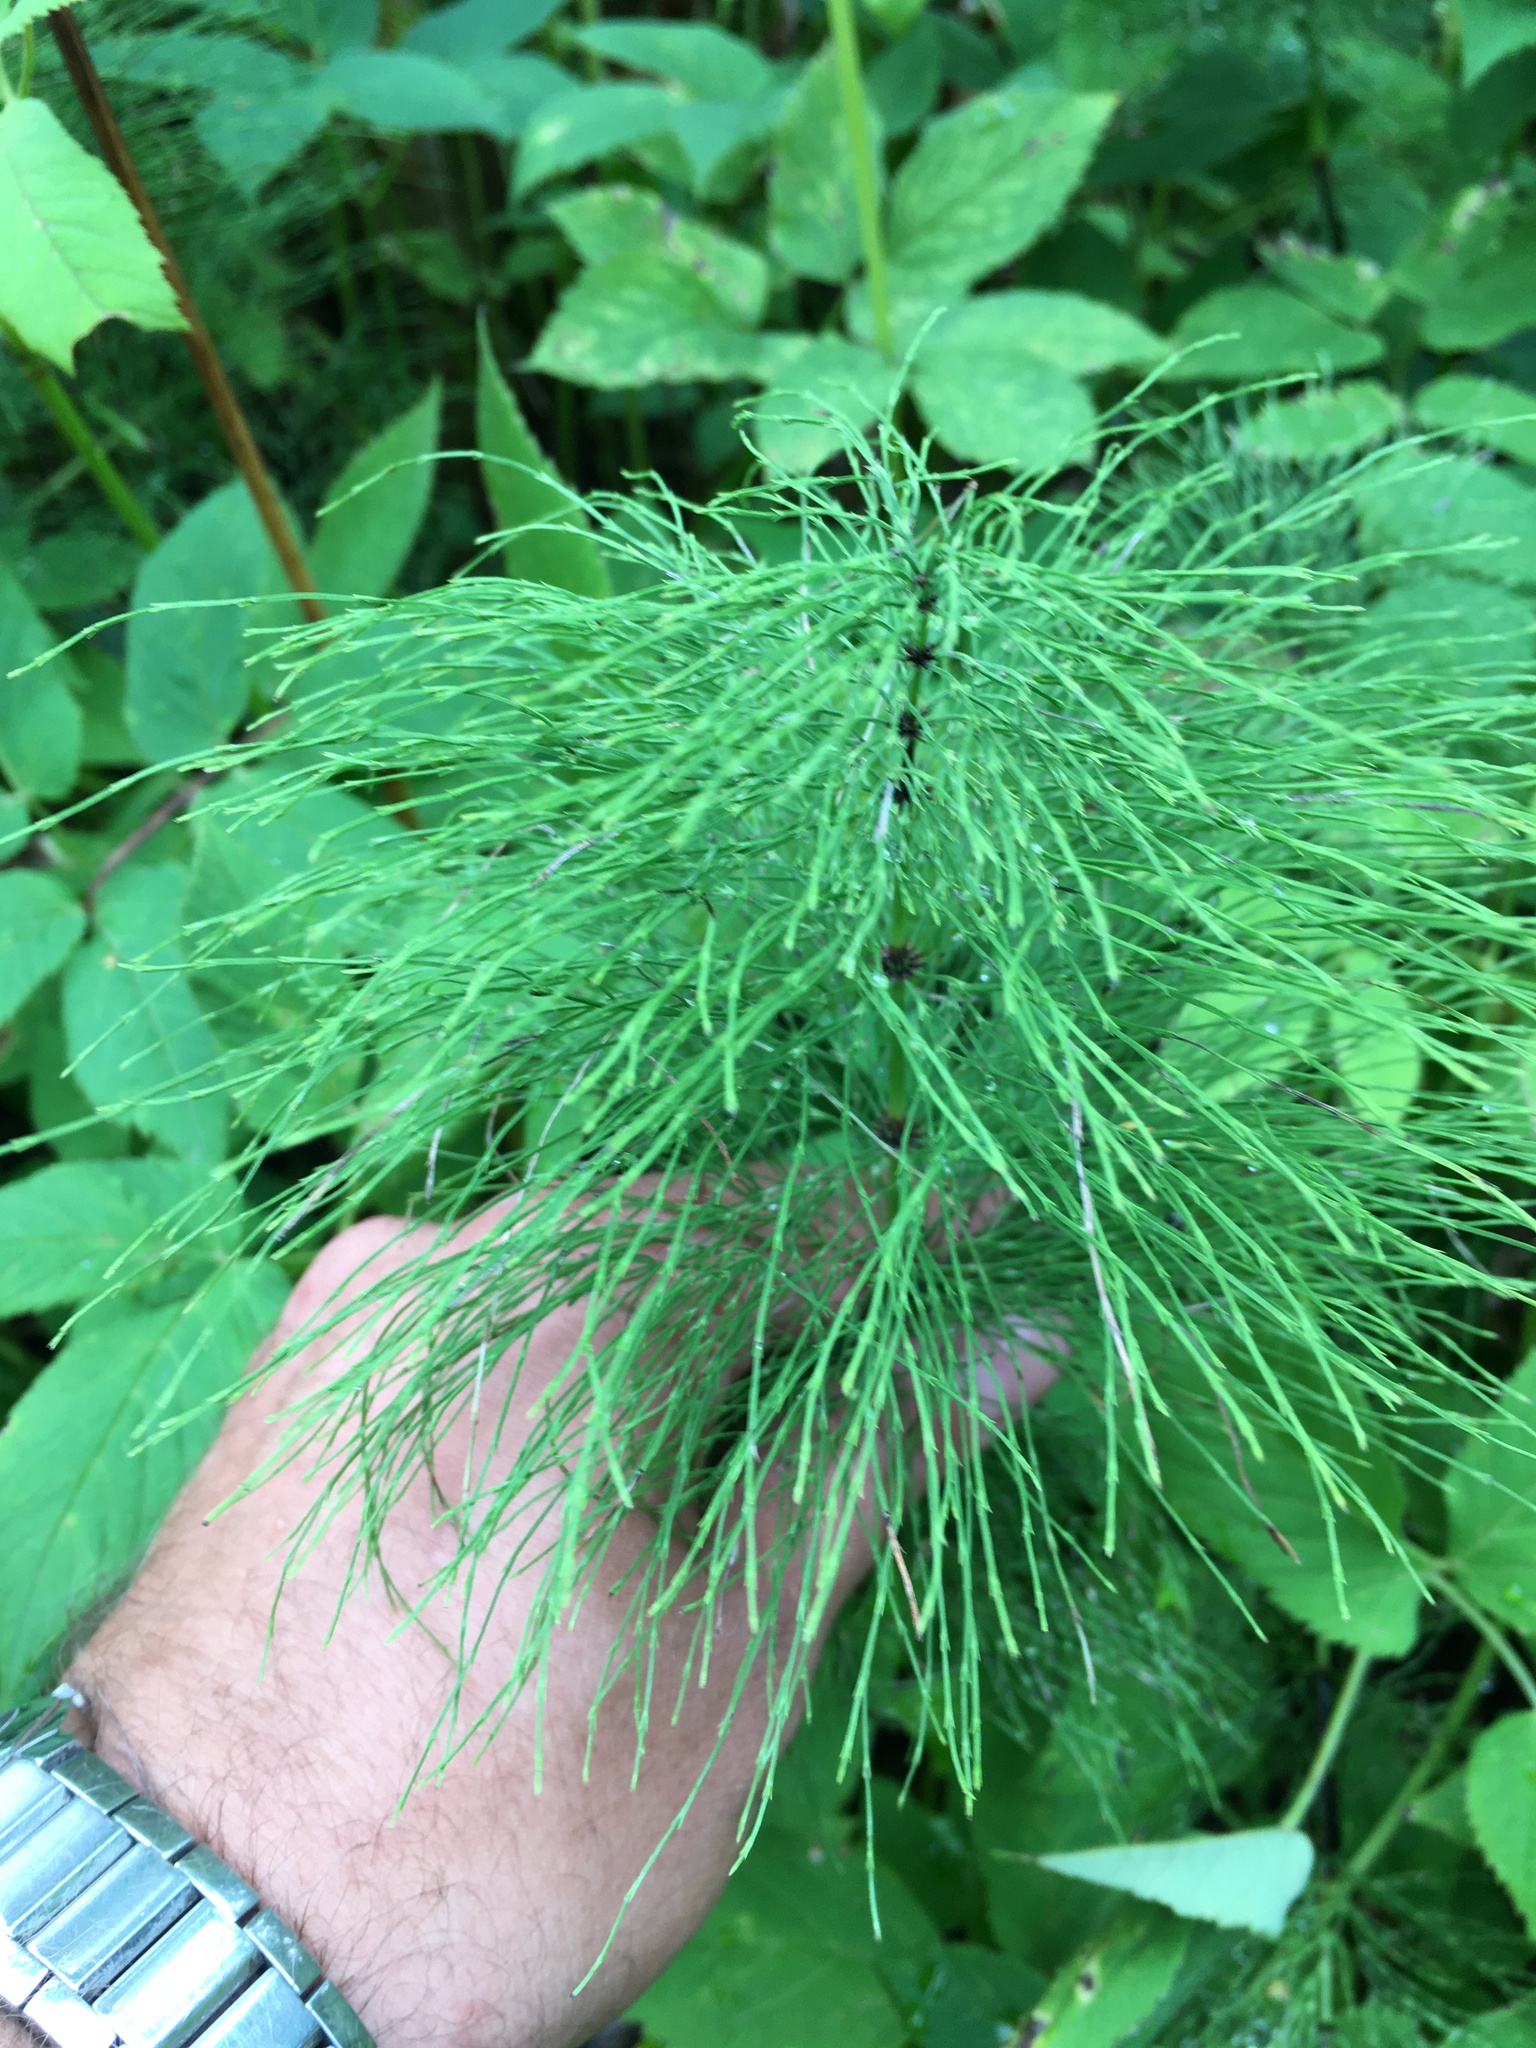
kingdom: Plantae
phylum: Tracheophyta
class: Polypodiopsida
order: Equisetales
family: Equisetaceae
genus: Equisetum
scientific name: Equisetum sylvaticum
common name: Wood horsetail
